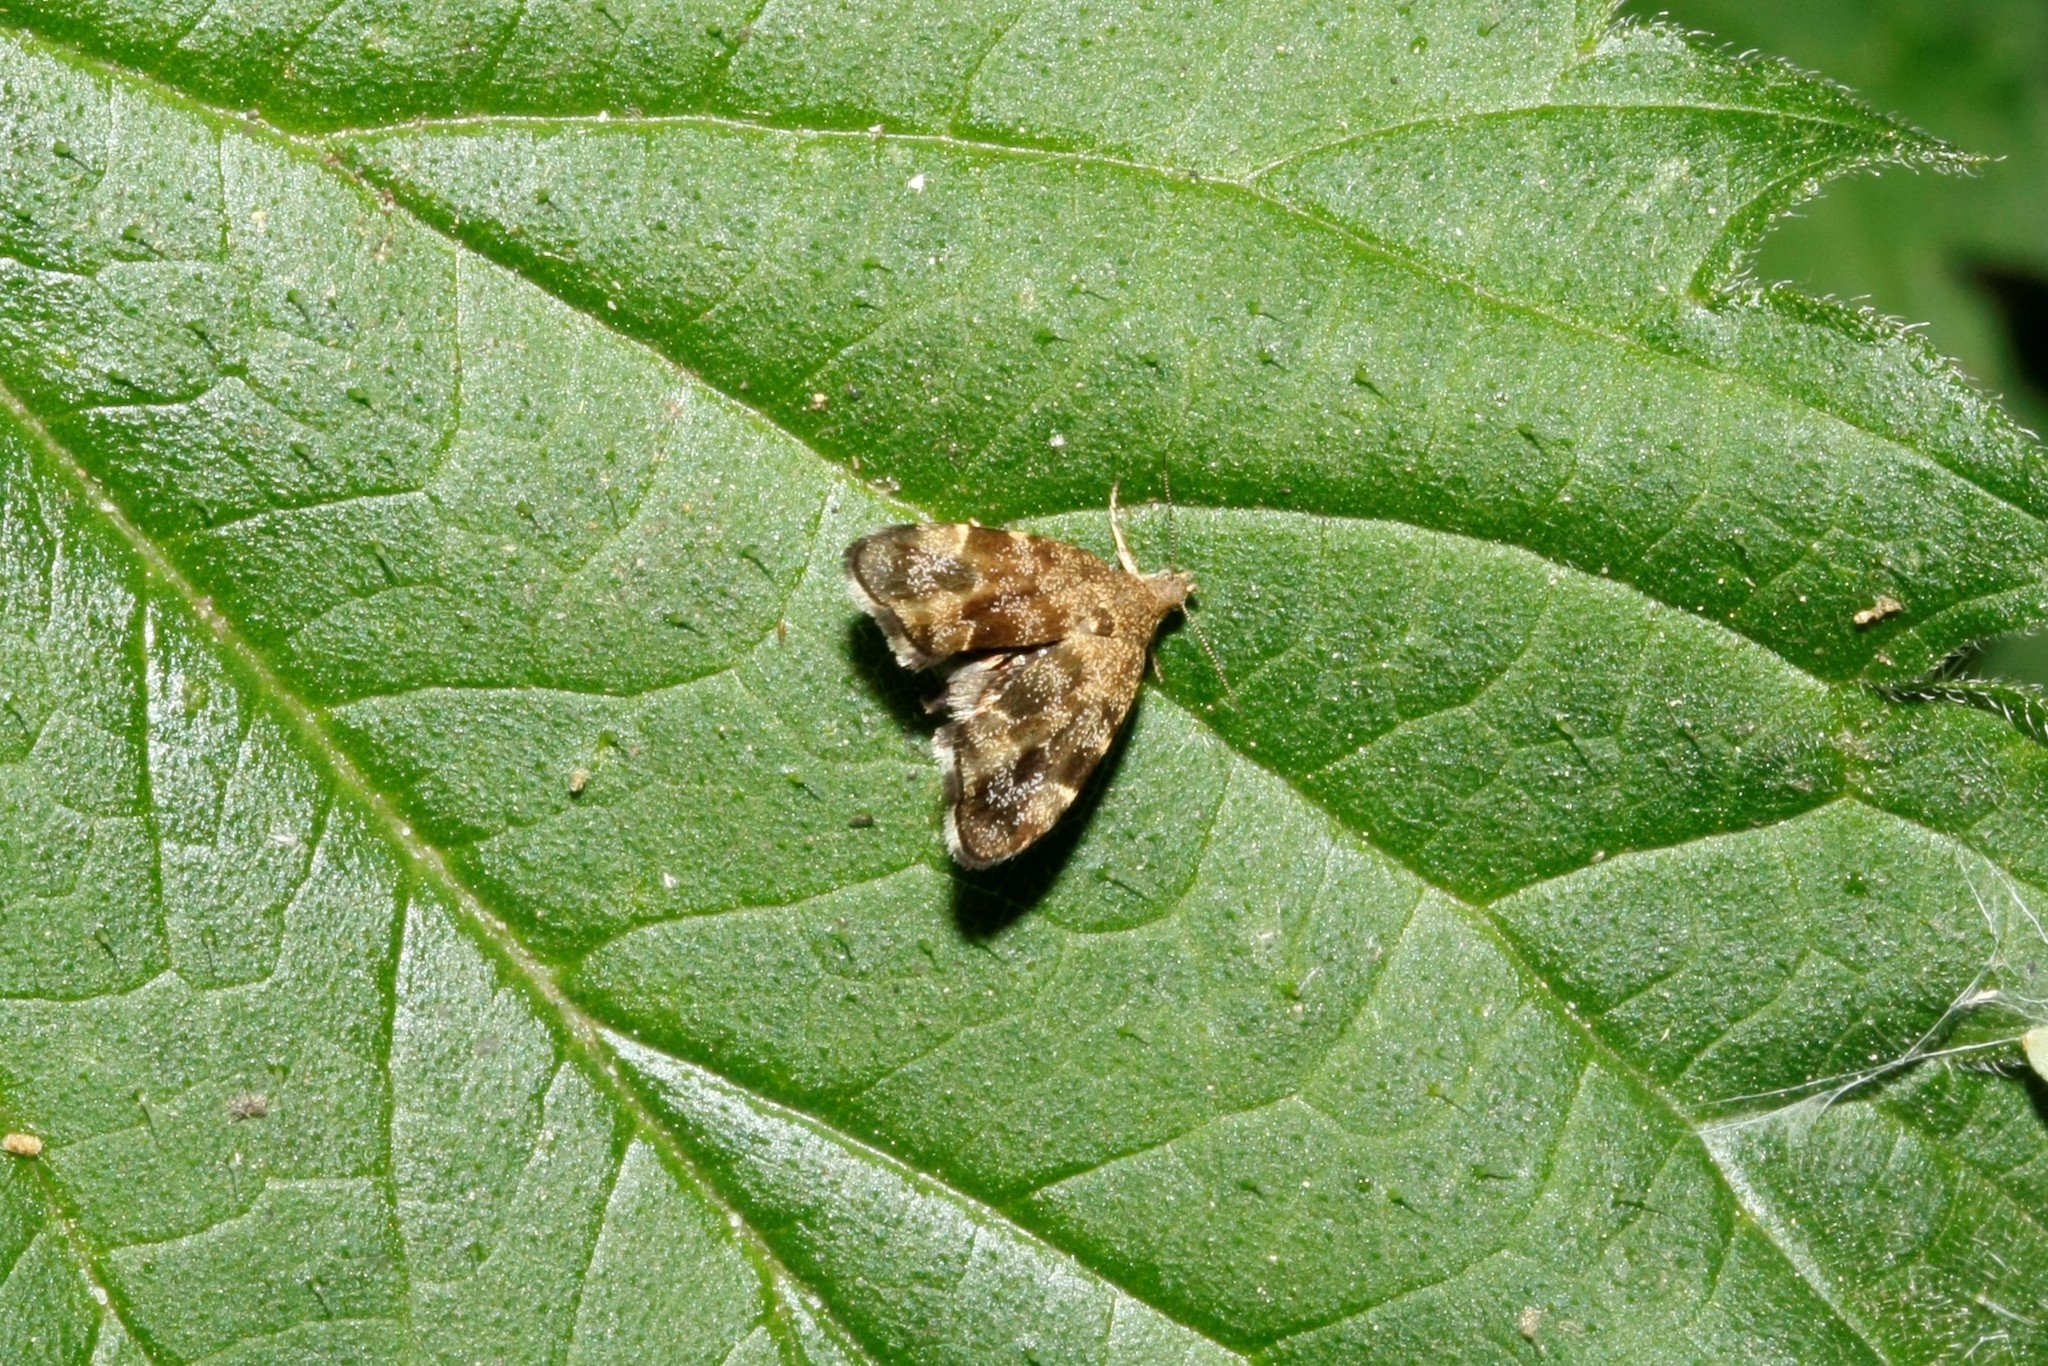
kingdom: Animalia
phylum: Arthropoda
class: Insecta
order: Lepidoptera
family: Choreutidae
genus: Anthophila
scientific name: Anthophila fabriciana
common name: Nettle-tap
